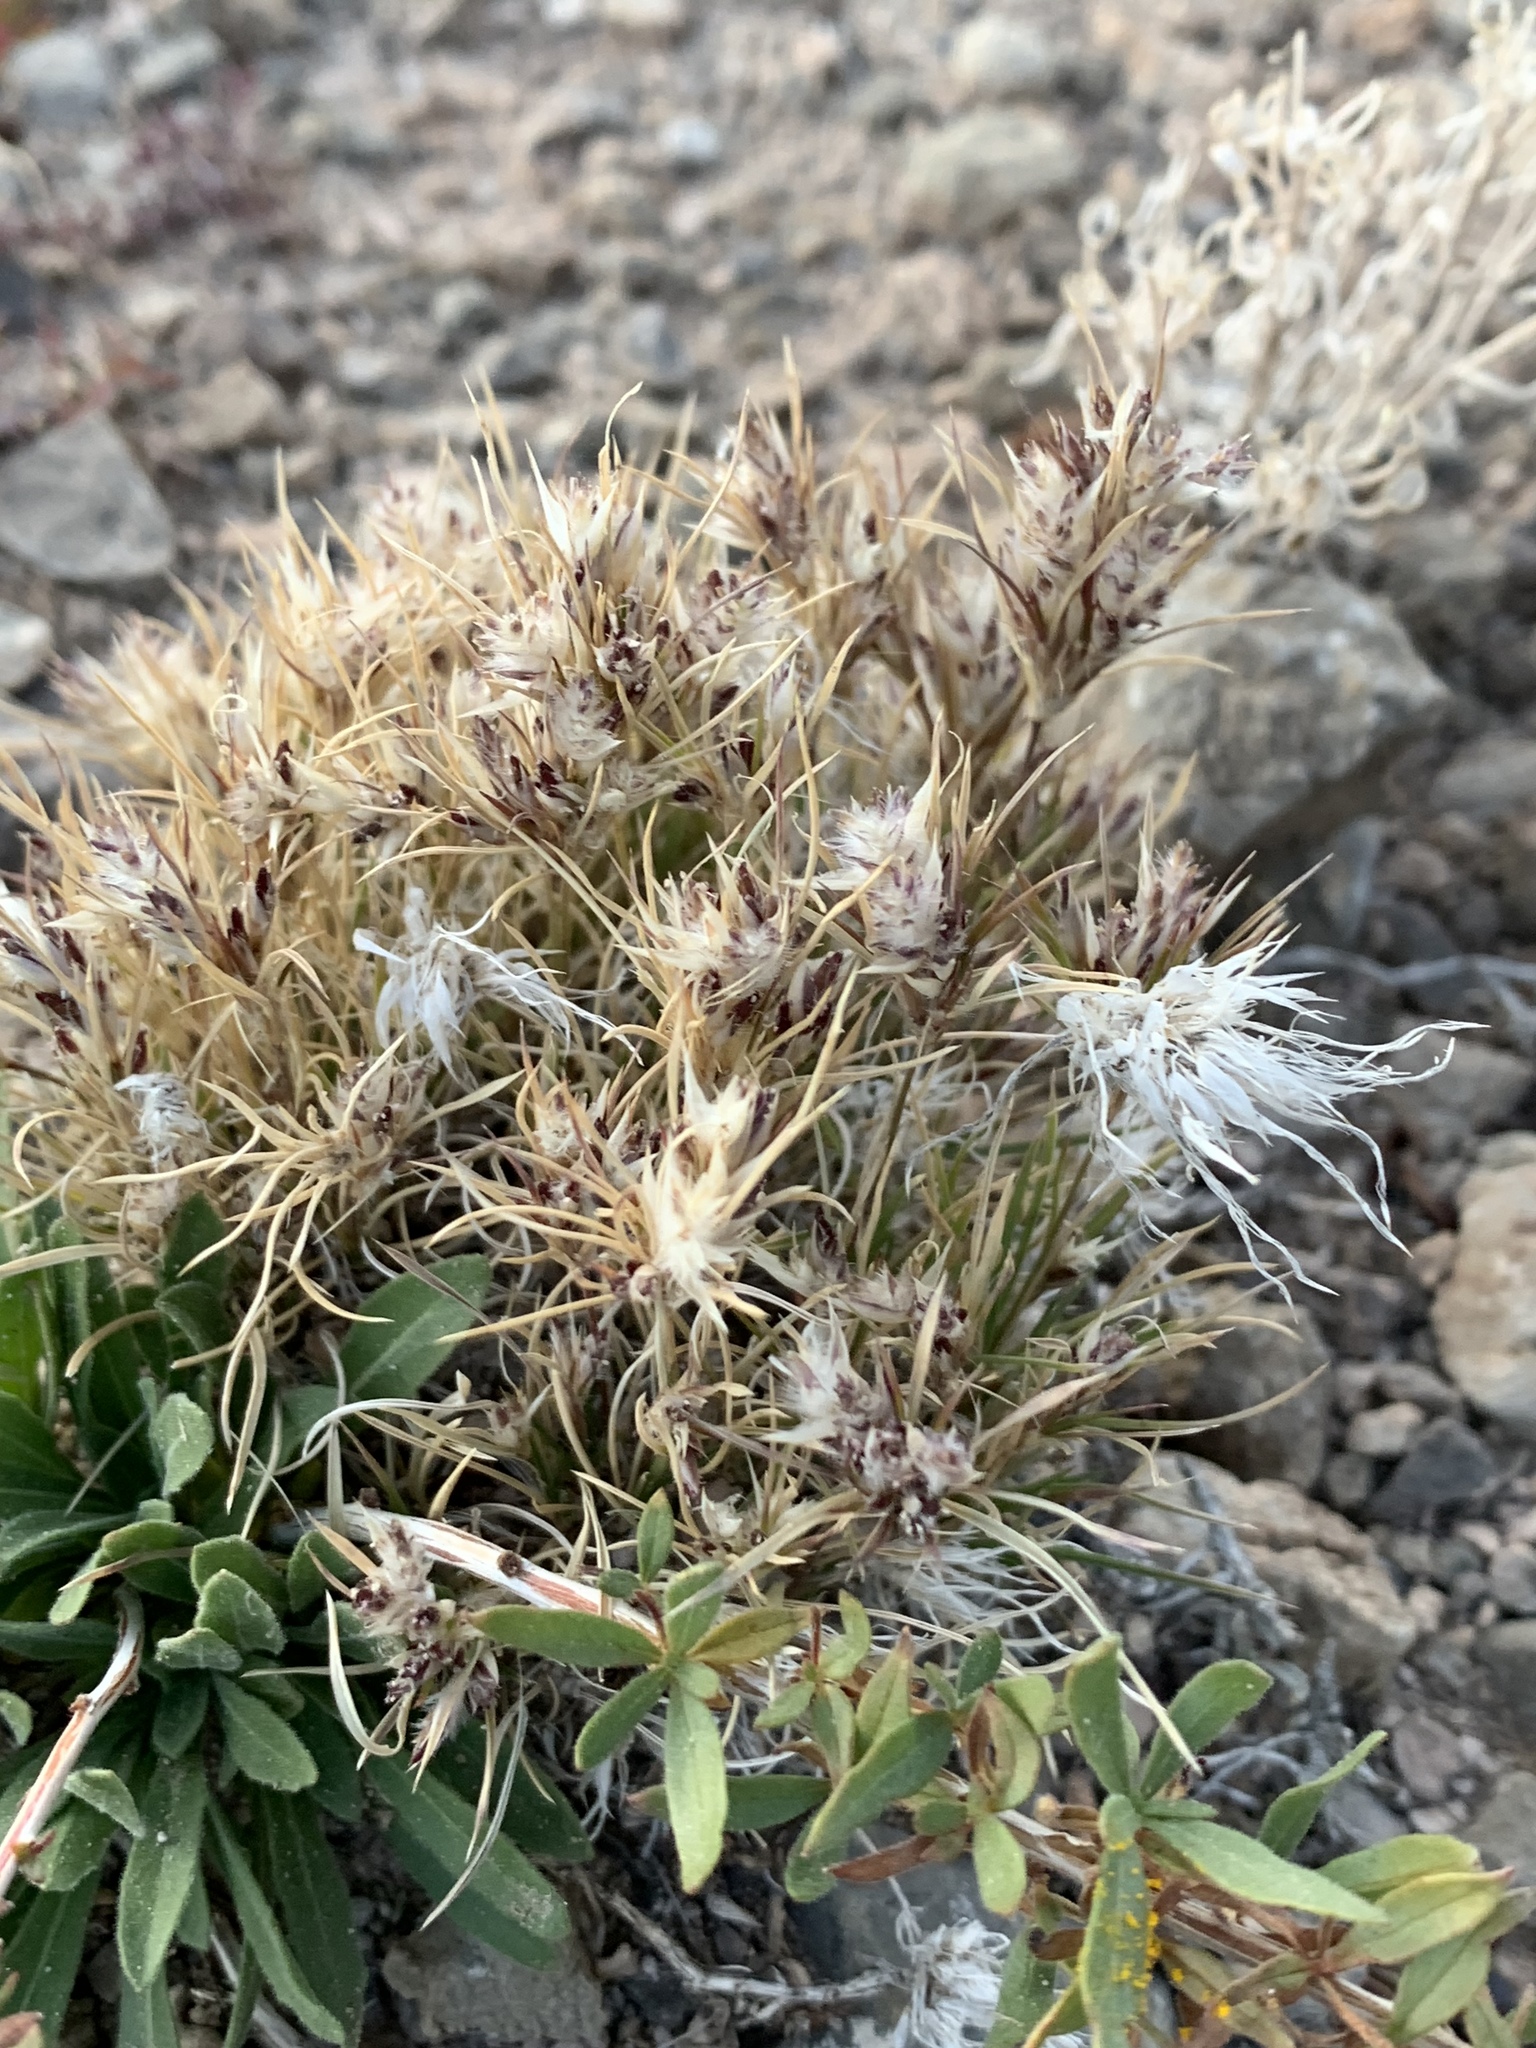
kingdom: Plantae
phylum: Tracheophyta
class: Liliopsida
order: Poales
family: Poaceae
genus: Dasyochloa
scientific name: Dasyochloa pulchella
